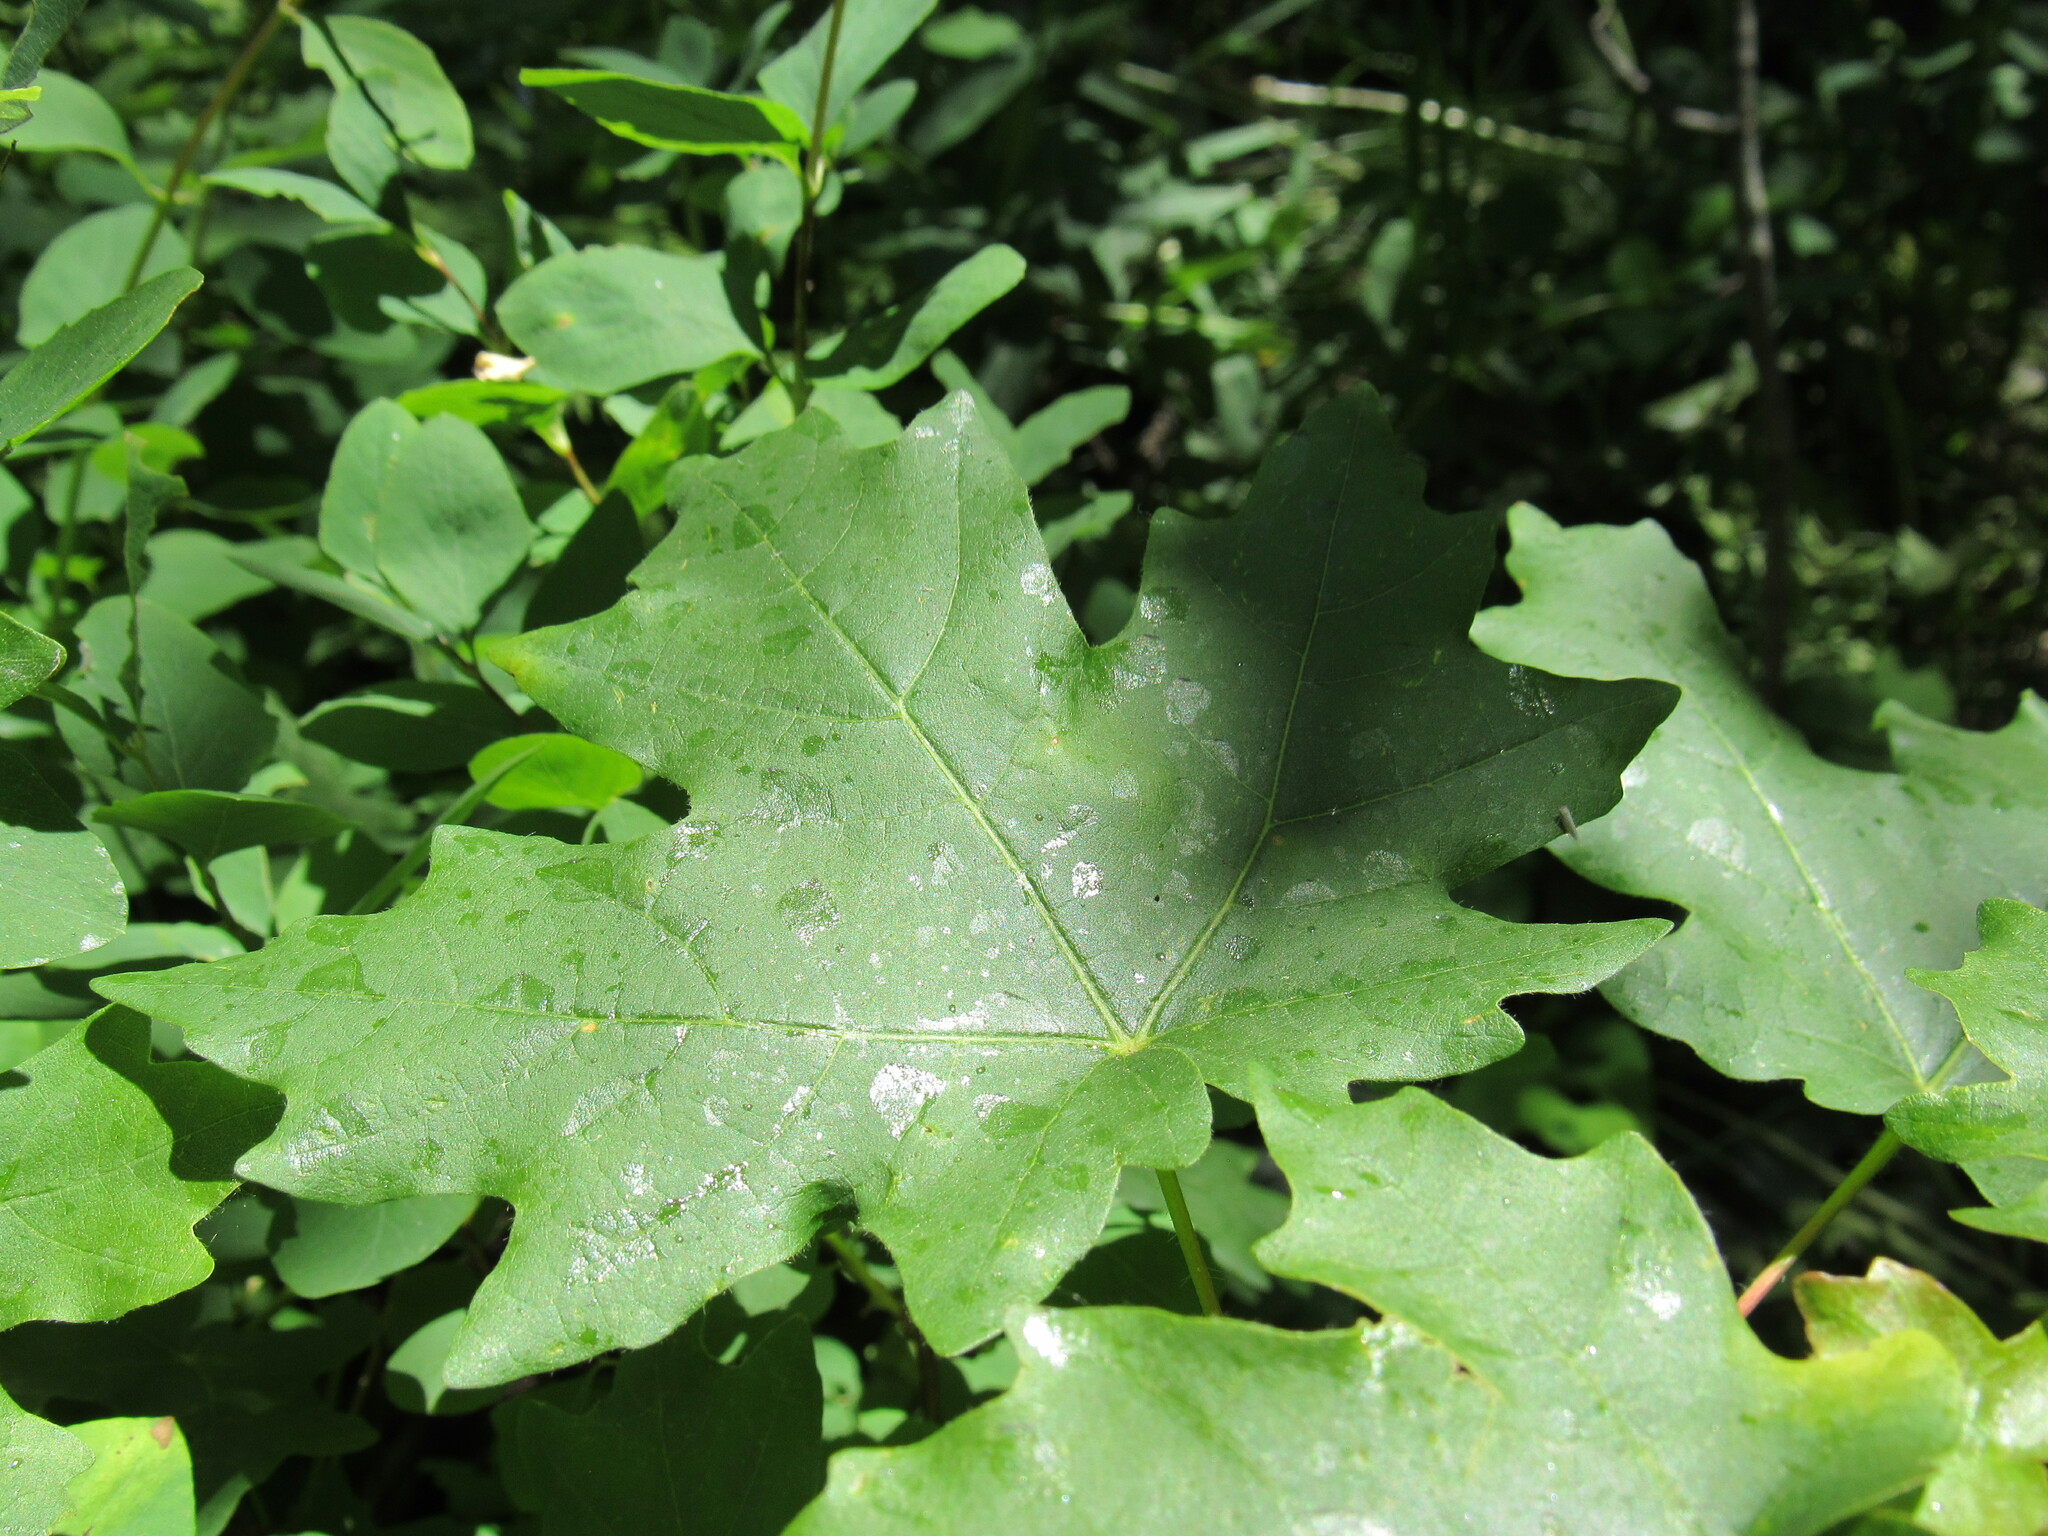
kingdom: Plantae
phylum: Tracheophyta
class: Magnoliopsida
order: Sapindales
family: Sapindaceae
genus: Acer
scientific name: Acer grandidentatum
